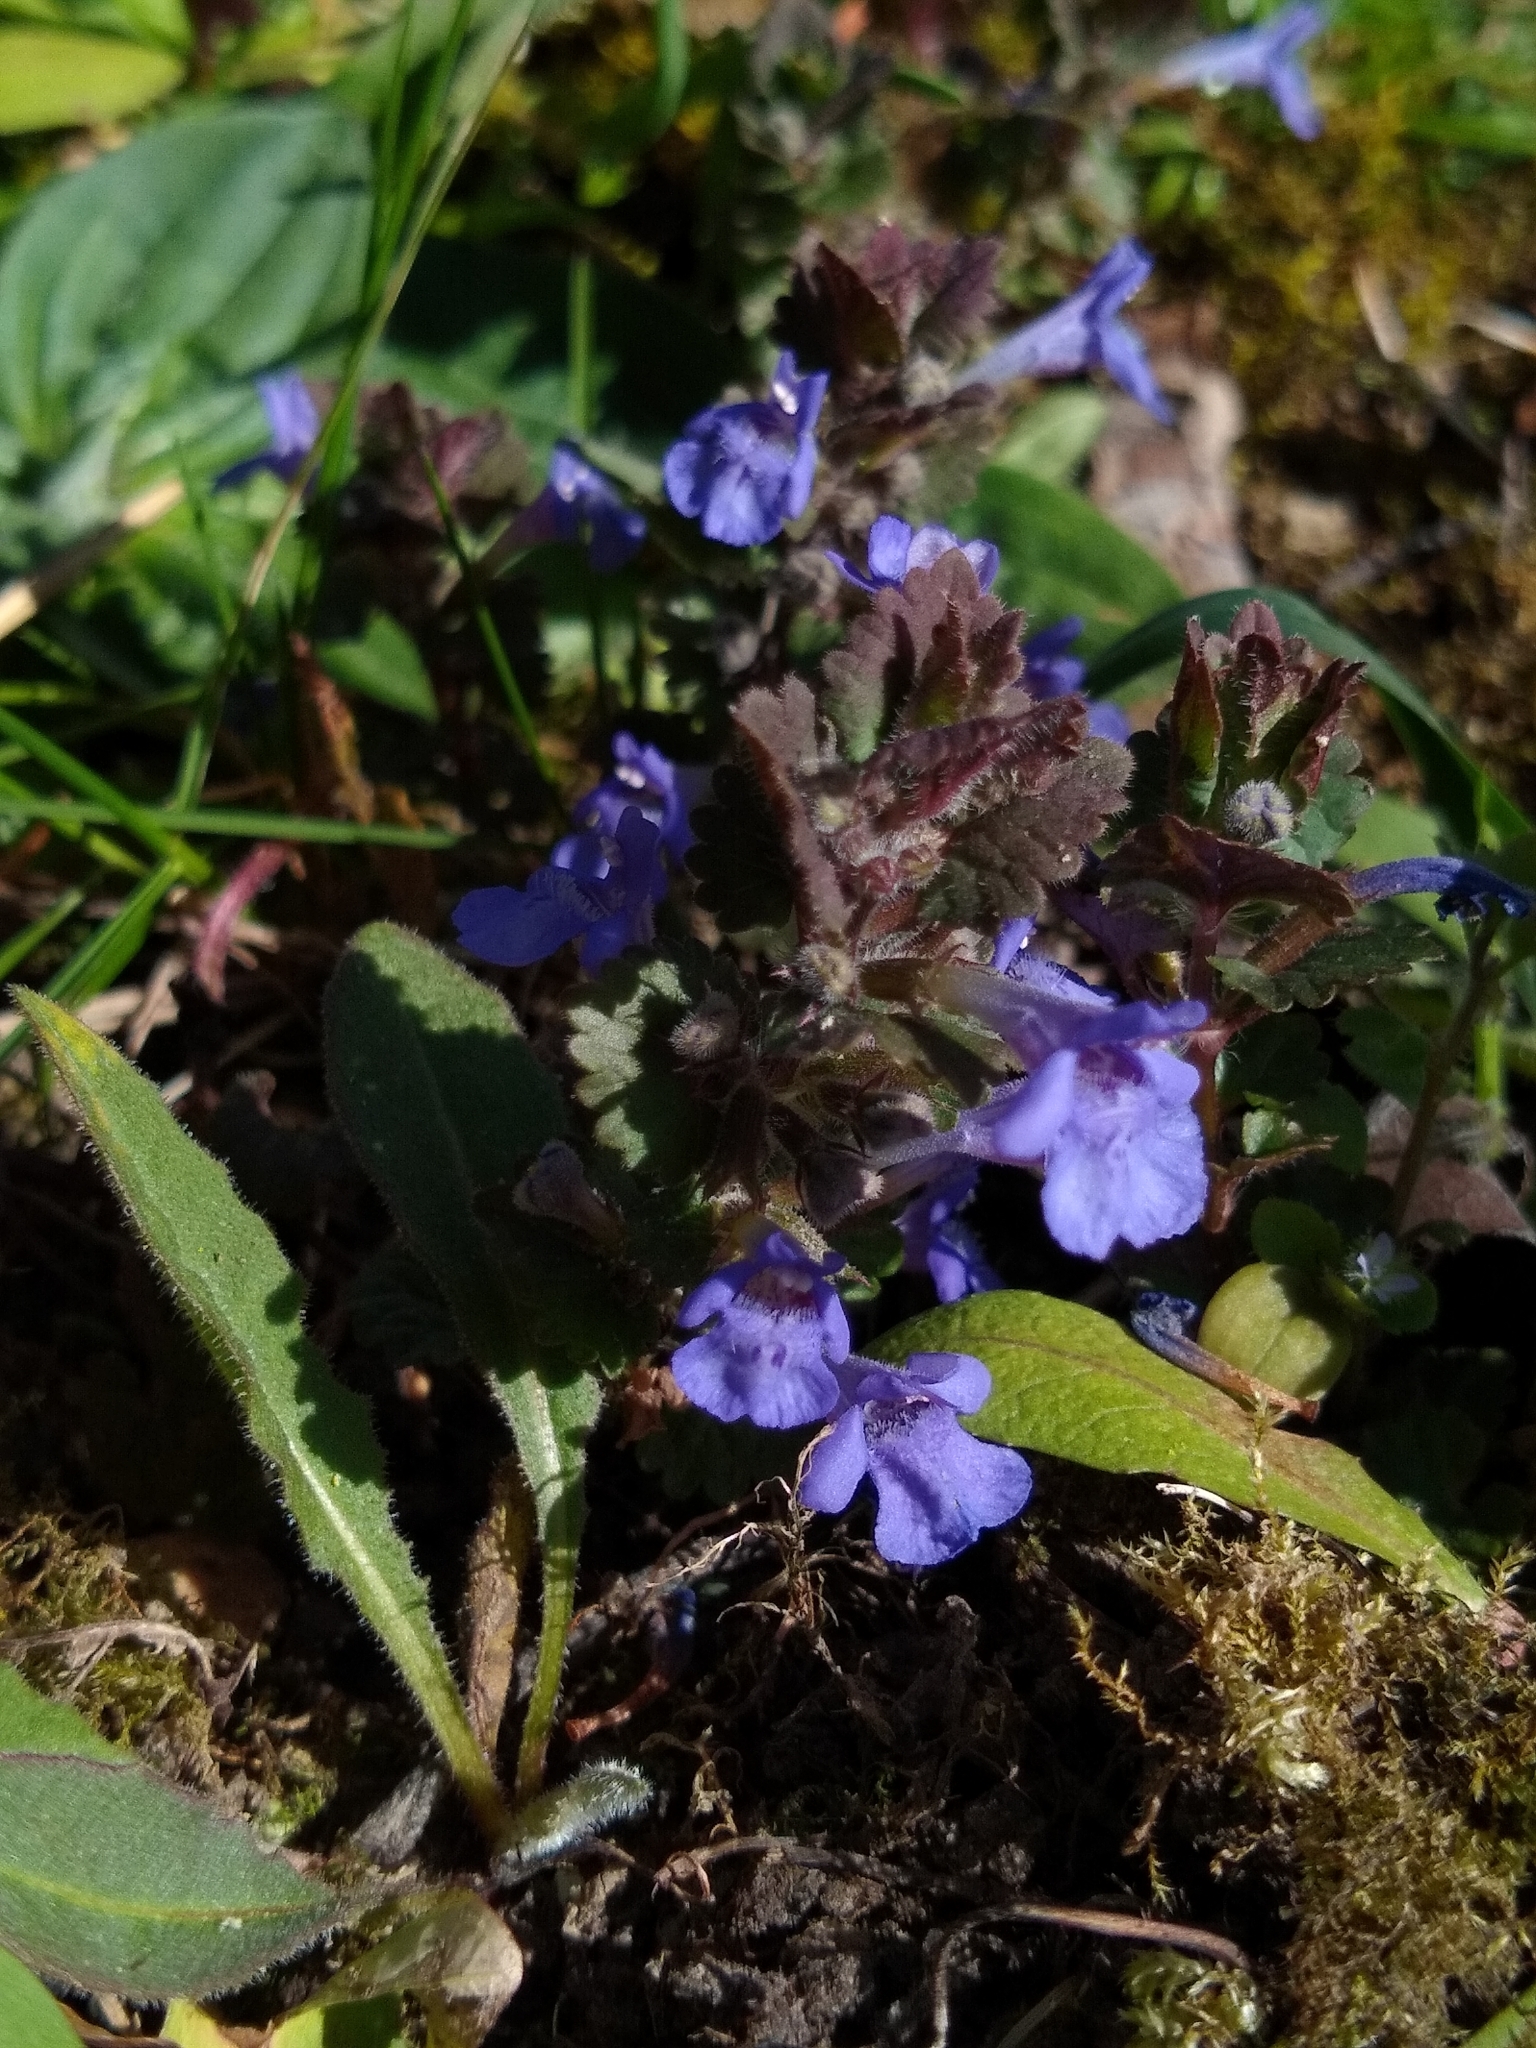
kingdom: Plantae
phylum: Tracheophyta
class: Magnoliopsida
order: Lamiales
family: Lamiaceae
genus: Glechoma
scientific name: Glechoma hederacea
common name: Ground ivy
